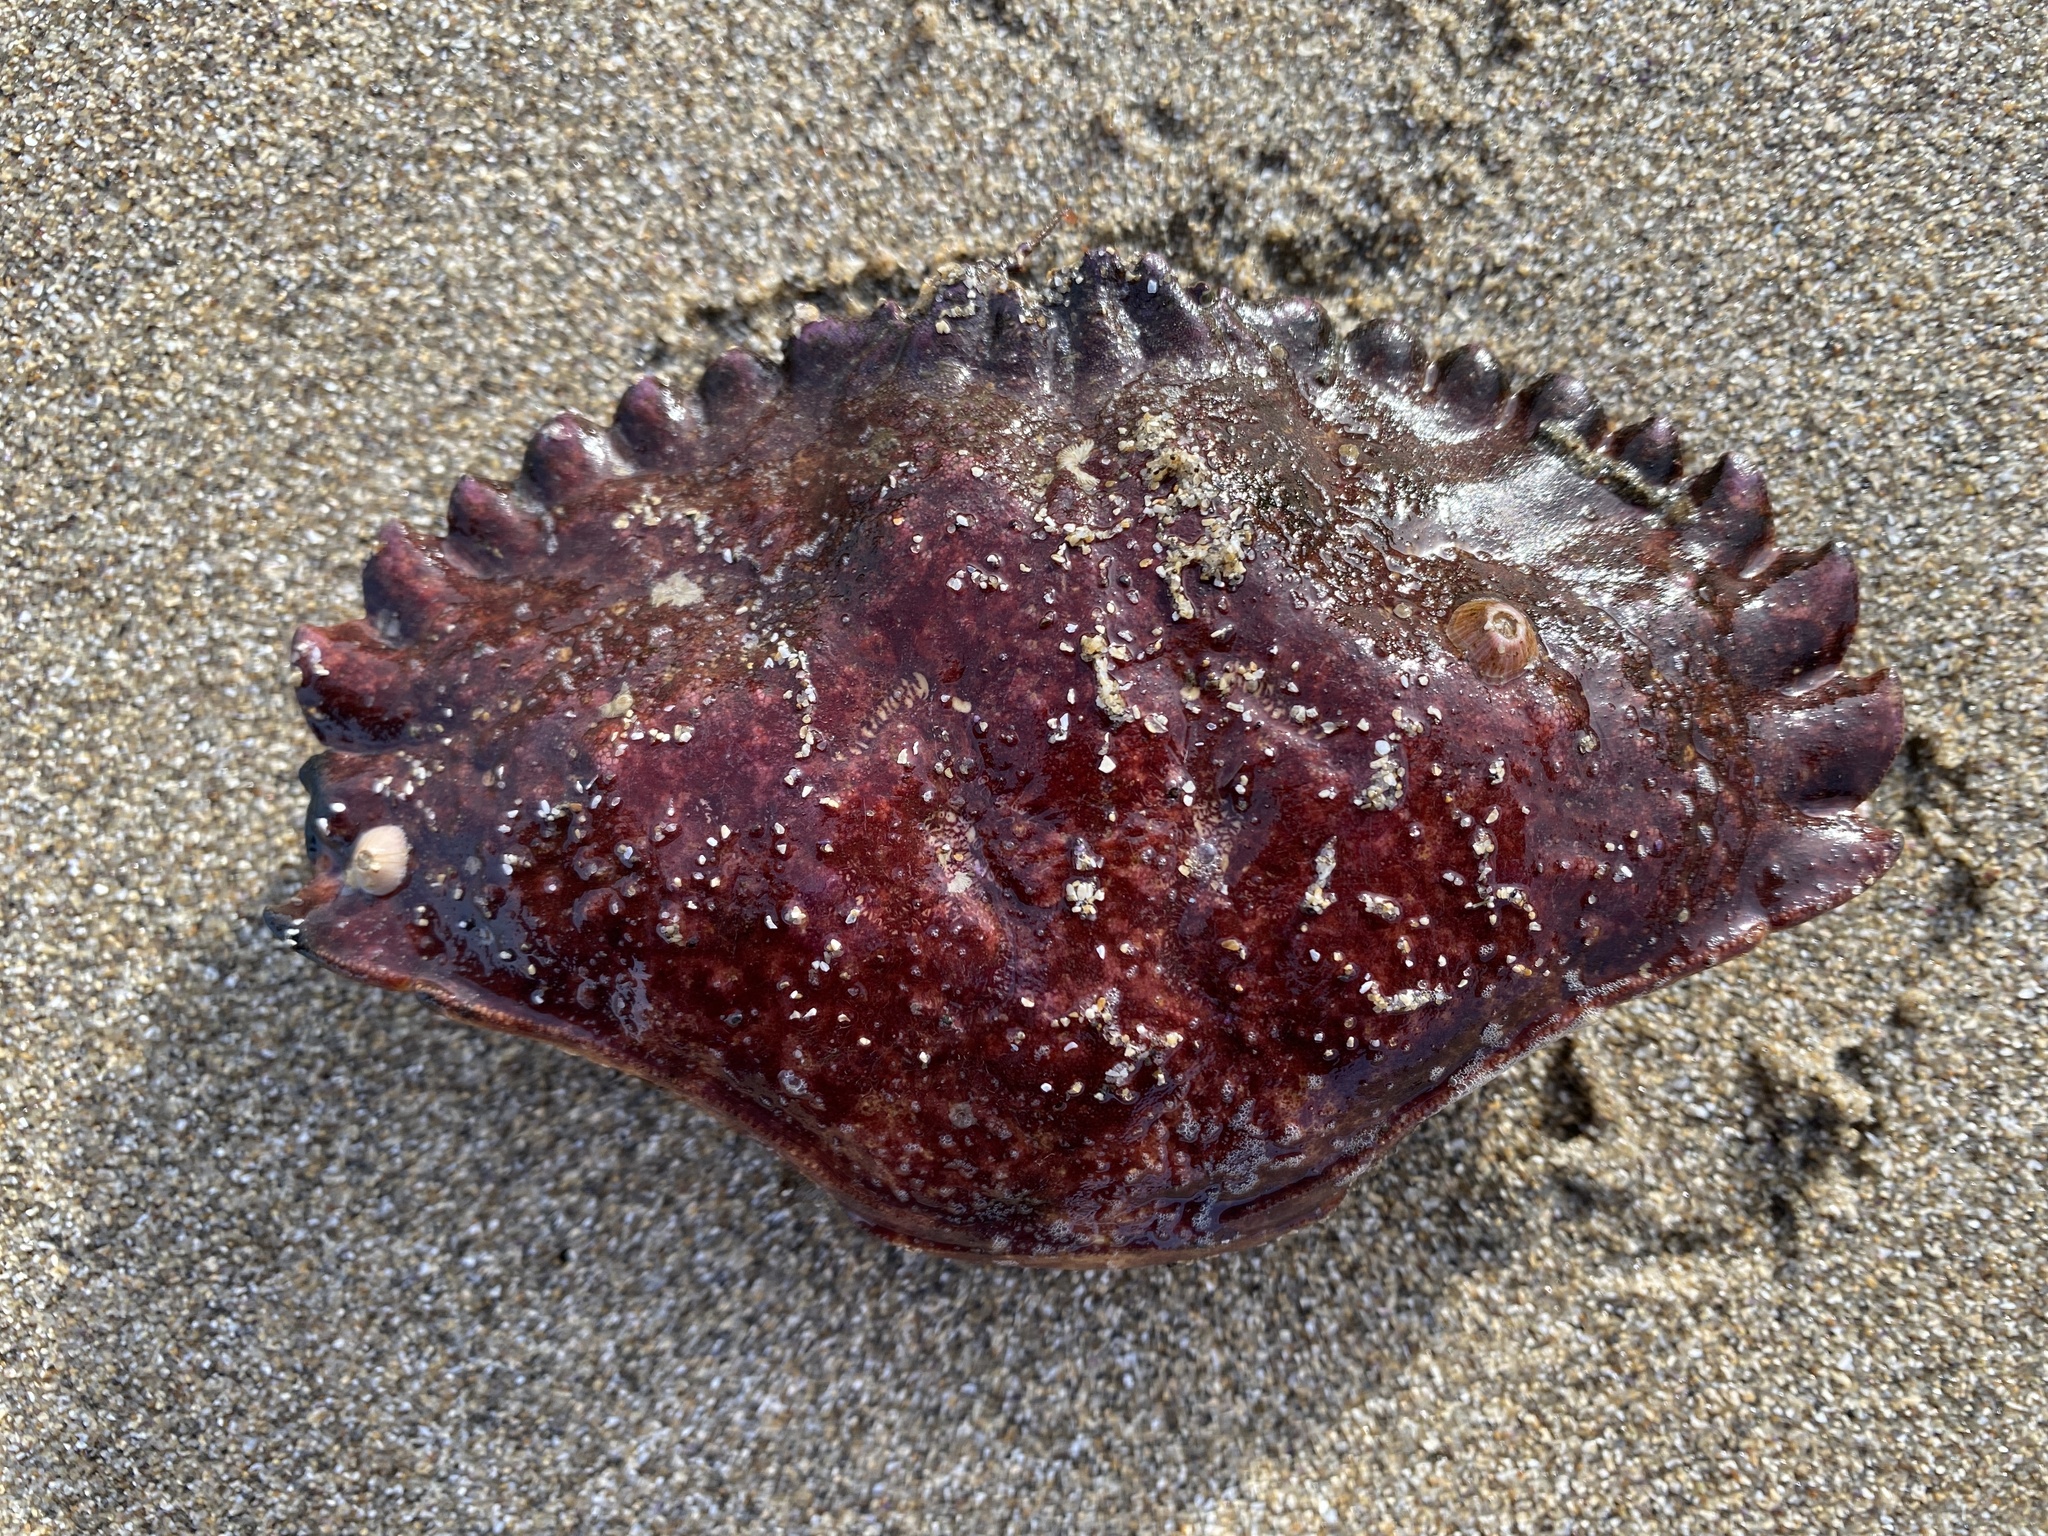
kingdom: Animalia
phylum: Arthropoda
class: Malacostraca
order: Decapoda
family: Cancridae
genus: Cancer
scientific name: Cancer productus
